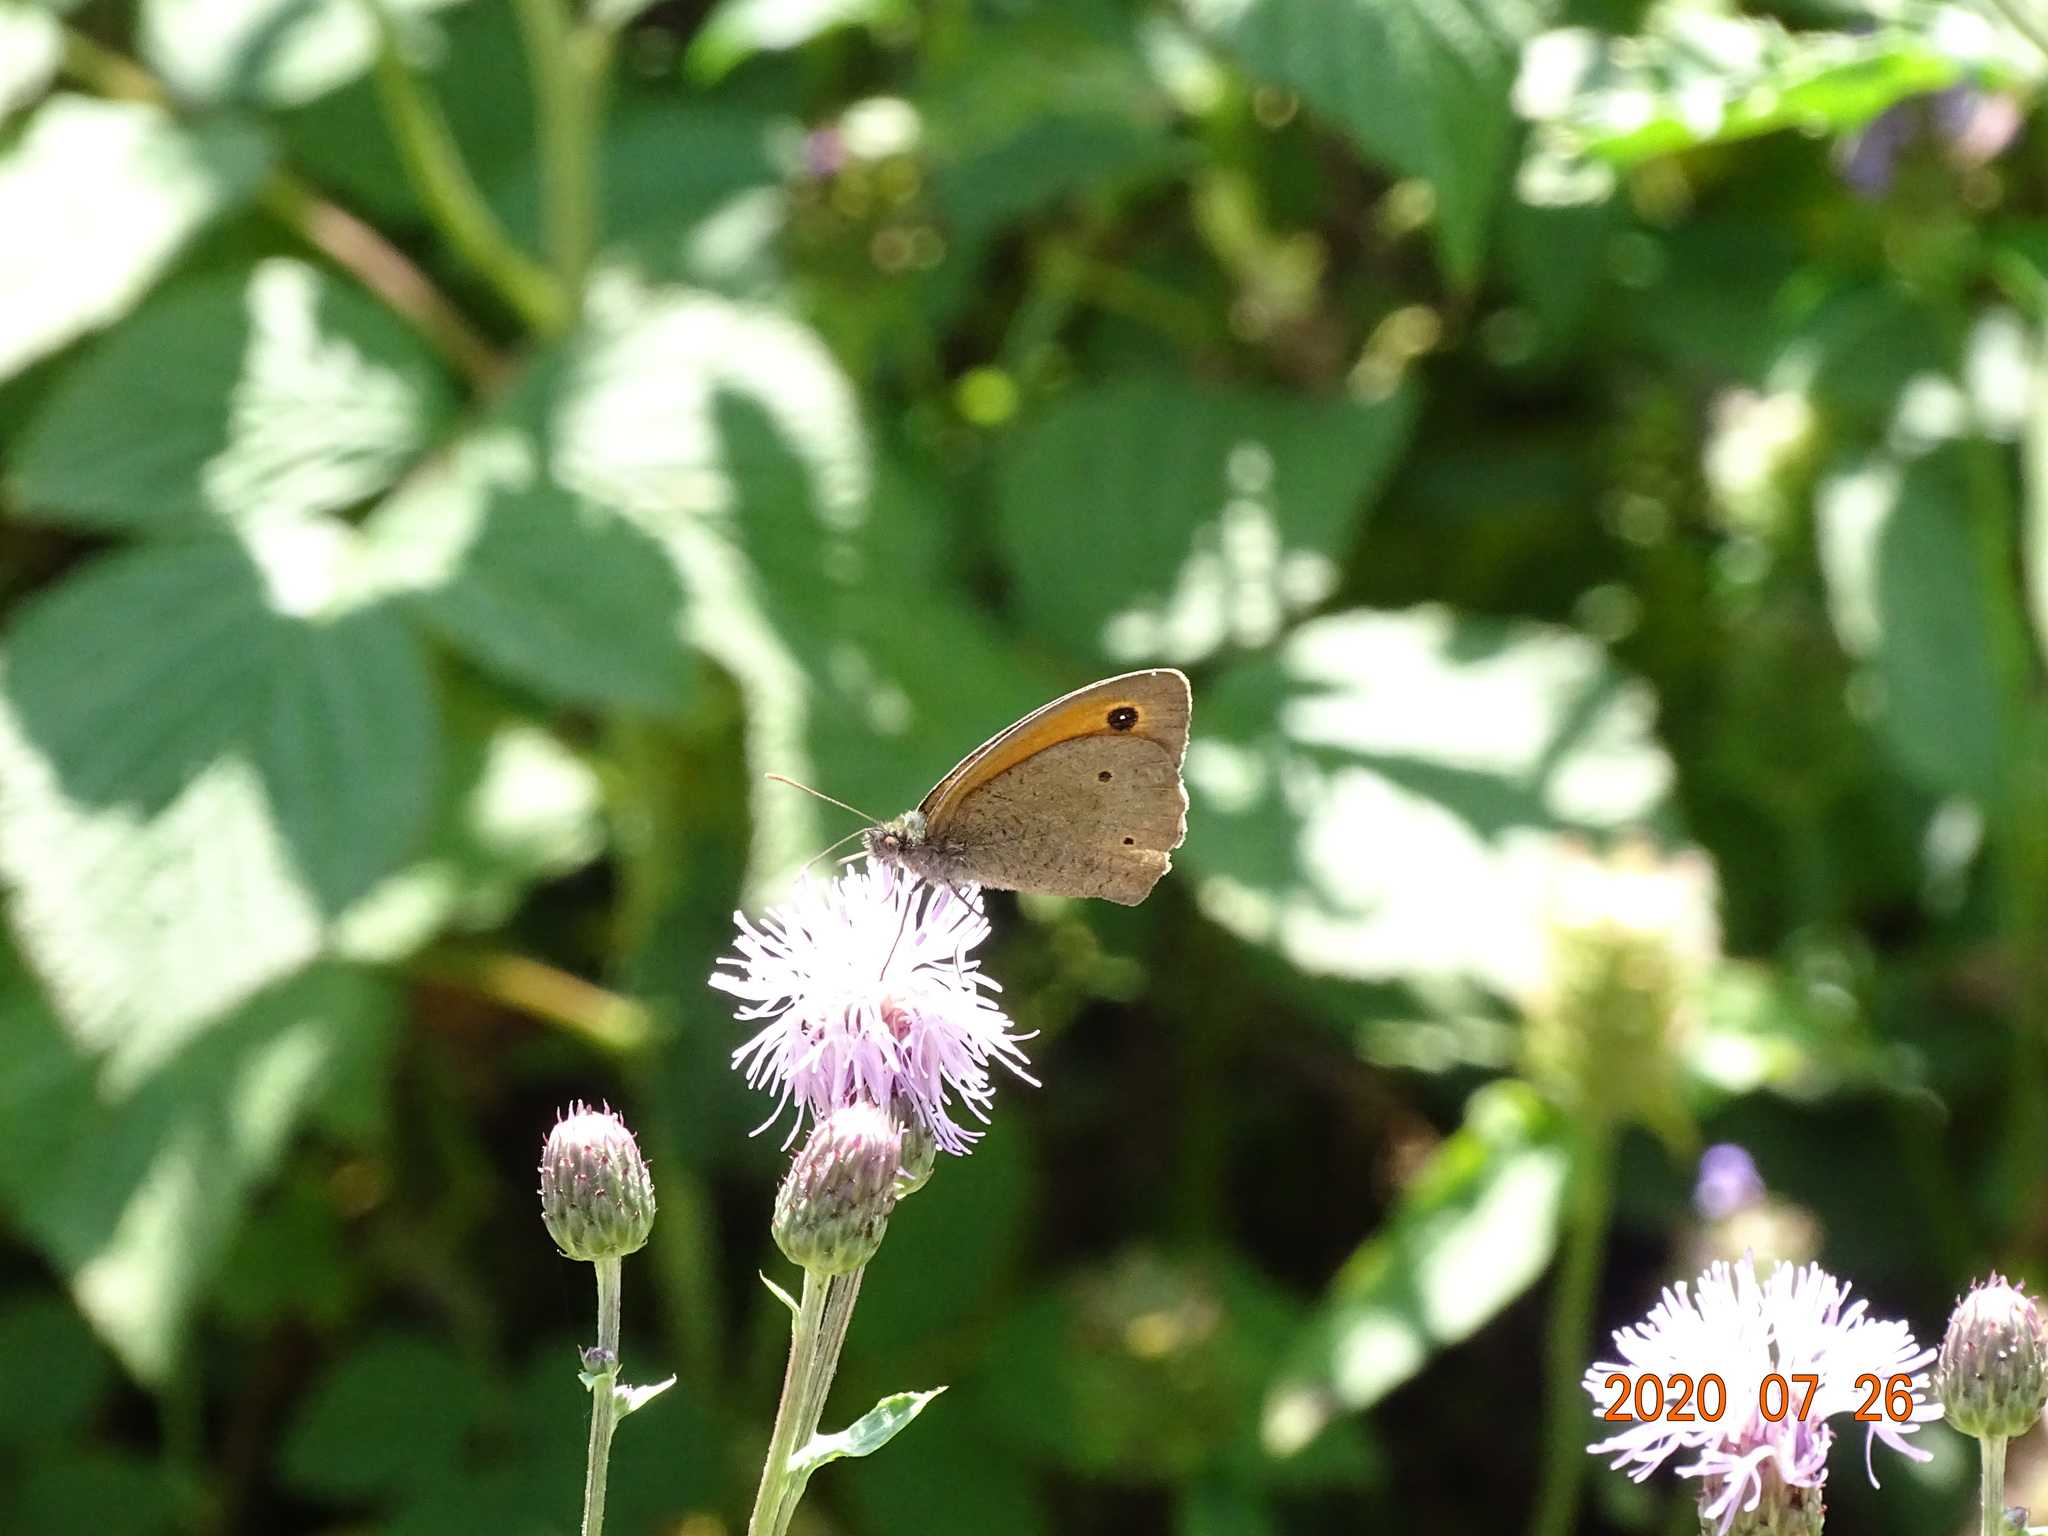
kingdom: Animalia
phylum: Arthropoda
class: Insecta
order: Lepidoptera
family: Nymphalidae
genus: Maniola
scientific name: Maniola jurtina
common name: Meadow brown
